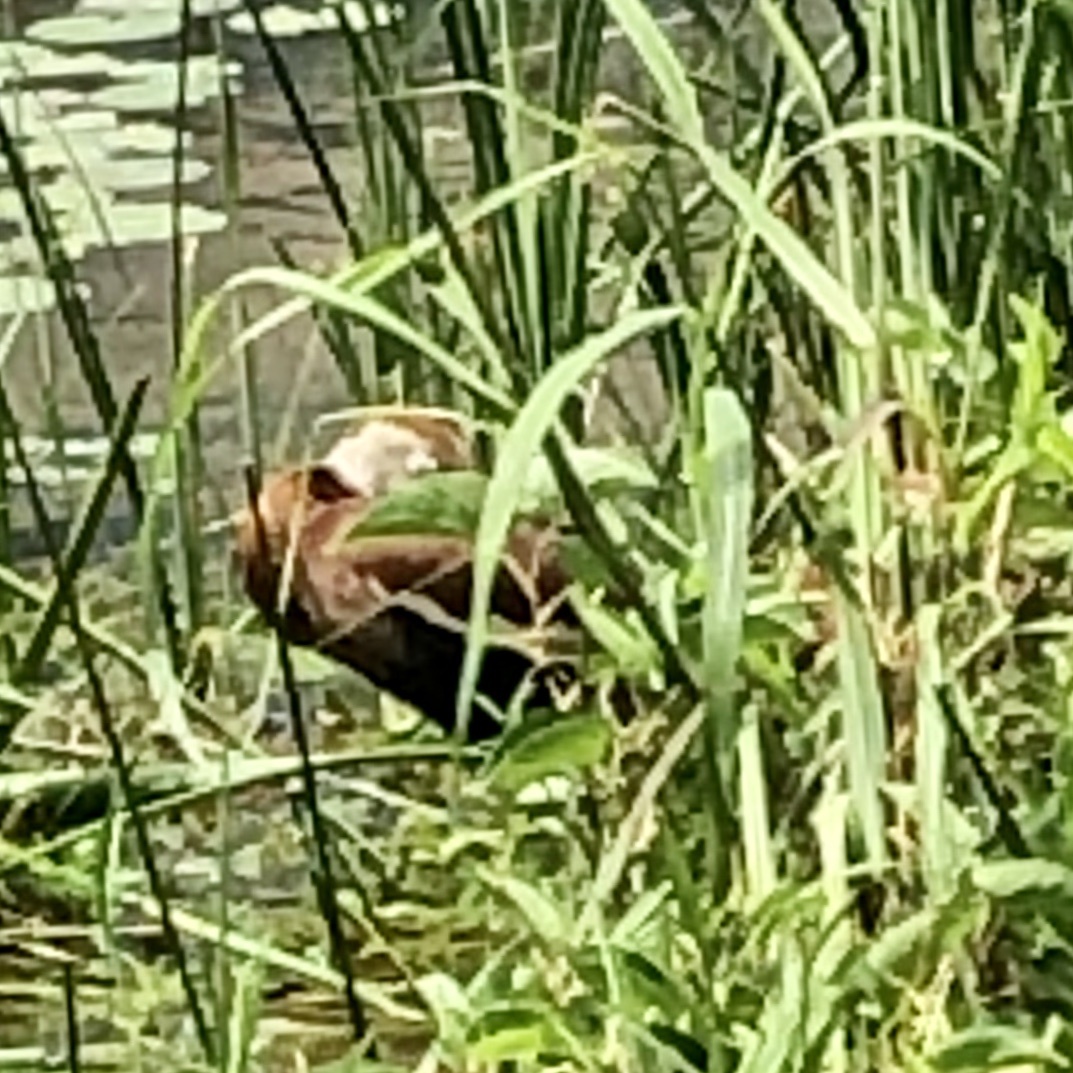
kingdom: Animalia
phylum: Chordata
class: Aves
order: Anseriformes
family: Anatidae
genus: Dendrocygna
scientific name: Dendrocygna autumnalis
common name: Black-bellied whistling duck
